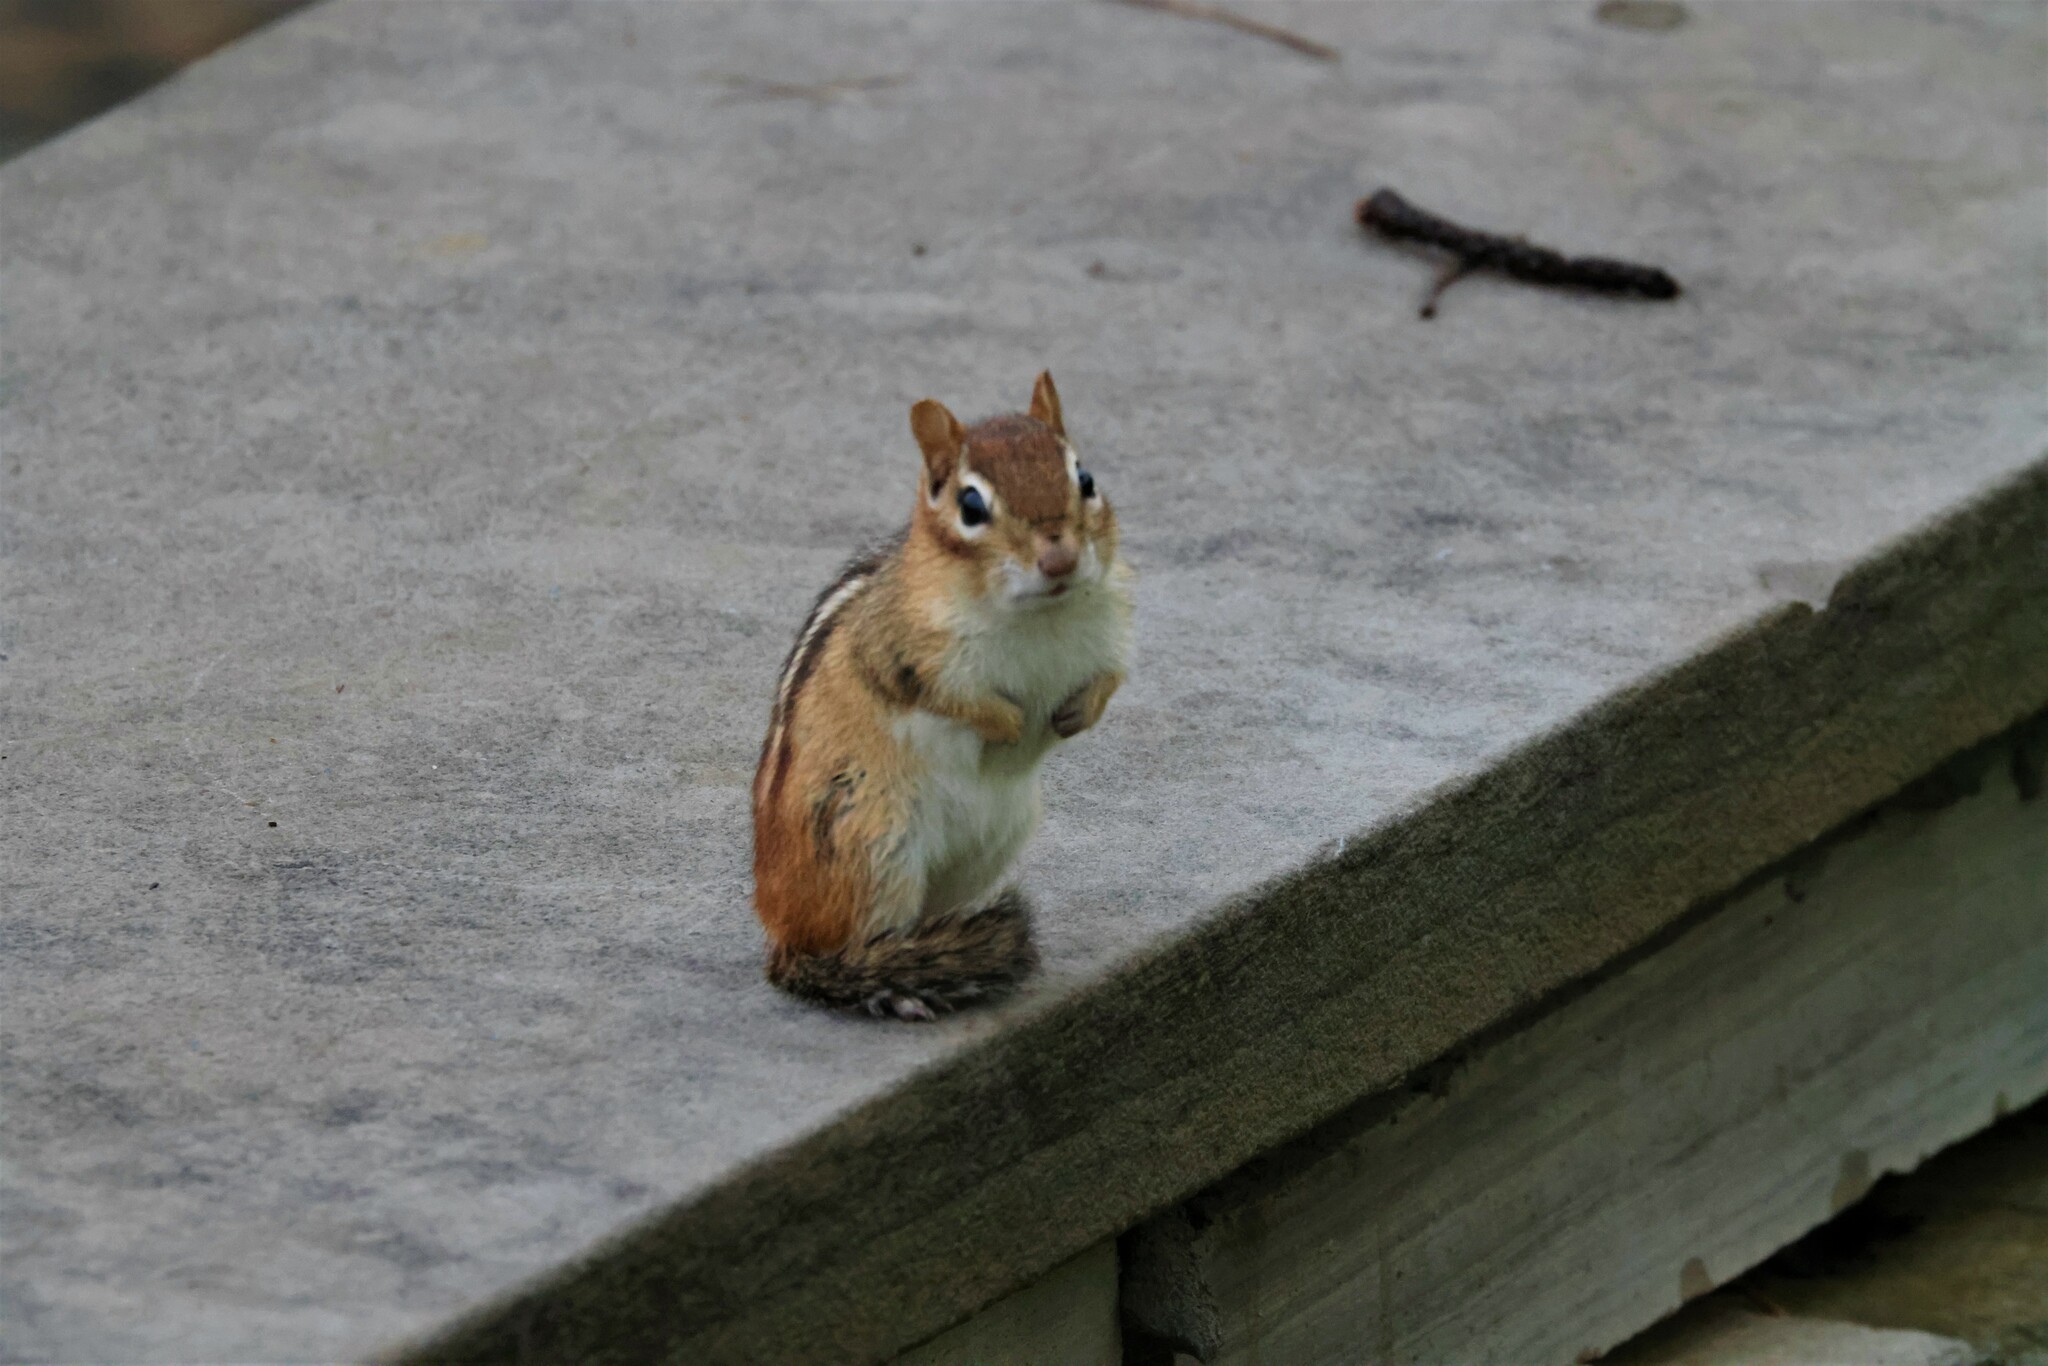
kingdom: Animalia
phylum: Chordata
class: Mammalia
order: Rodentia
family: Sciuridae
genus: Tamias
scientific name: Tamias striatus
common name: Eastern chipmunk
